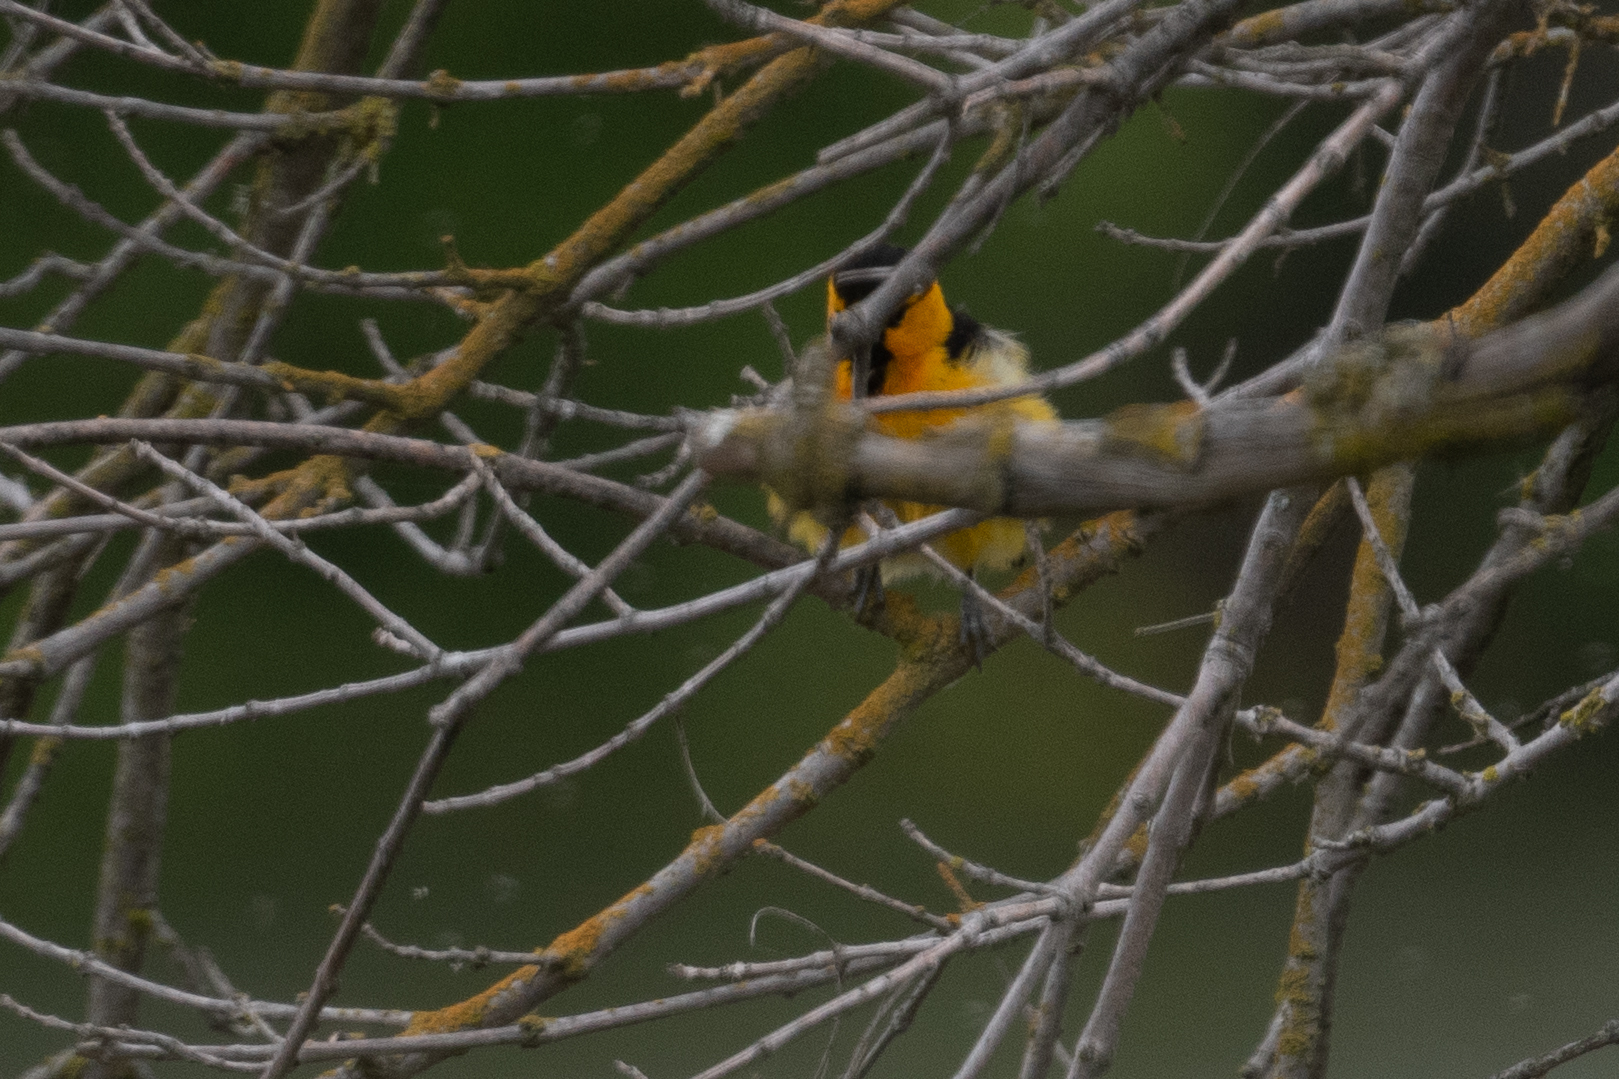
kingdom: Animalia
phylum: Chordata
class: Aves
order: Passeriformes
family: Icteridae
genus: Icterus
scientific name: Icterus bullockii
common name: Bullock's oriole
